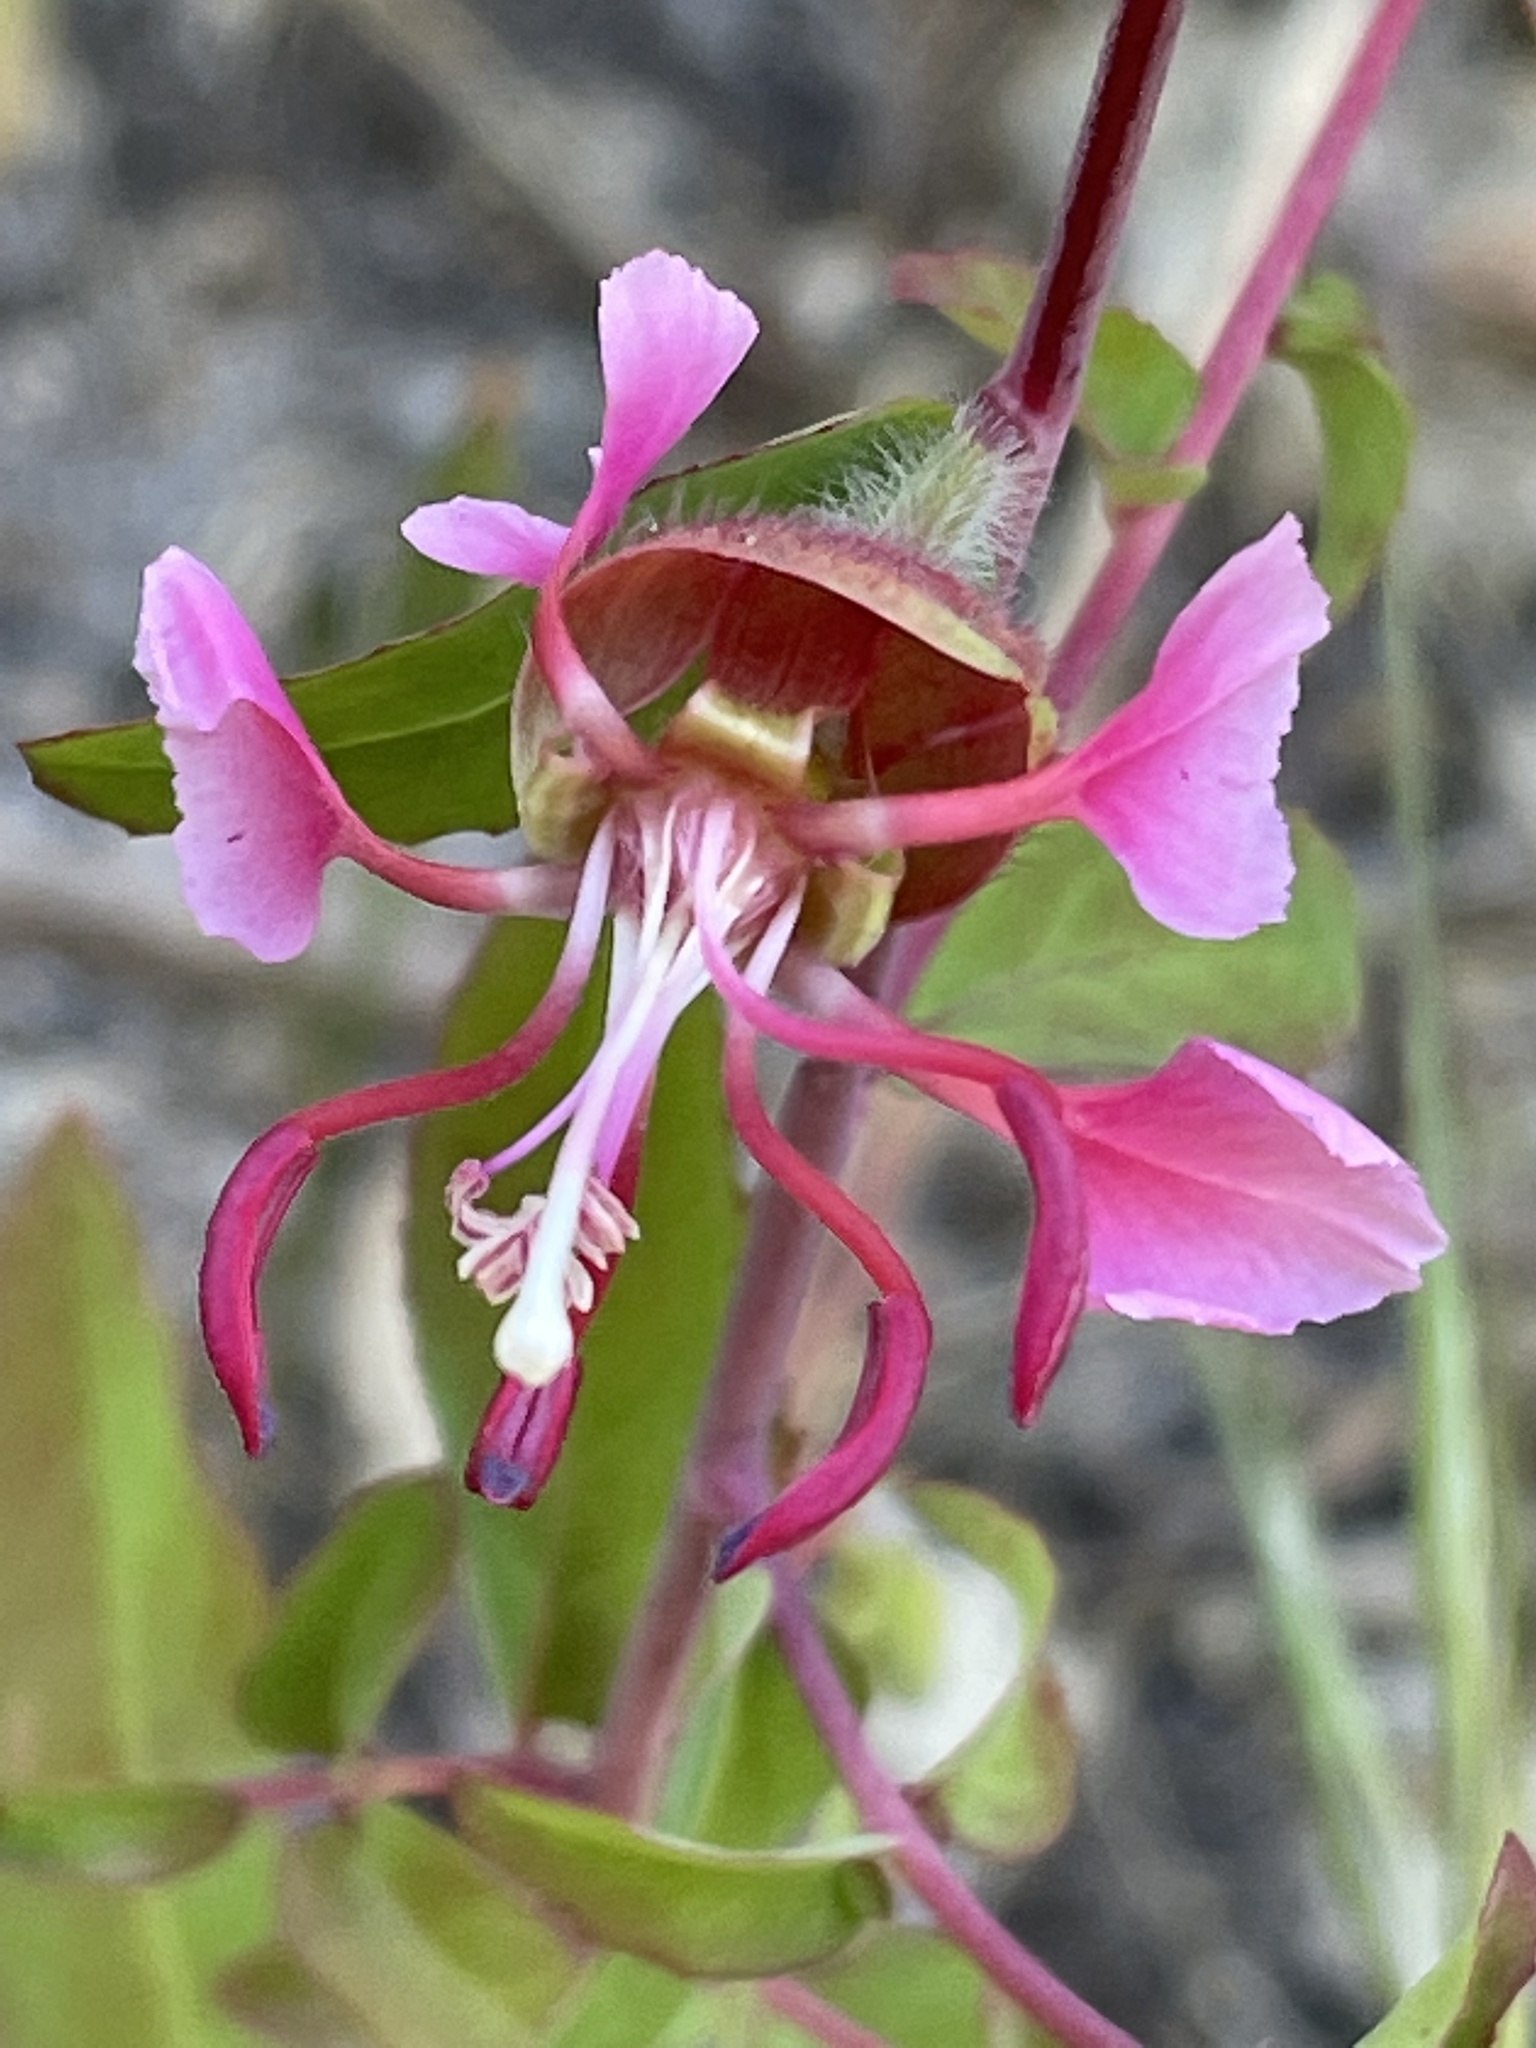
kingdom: Plantae
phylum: Tracheophyta
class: Magnoliopsida
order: Myrtales
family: Onagraceae
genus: Clarkia
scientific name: Clarkia unguiculata
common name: Clarkia
